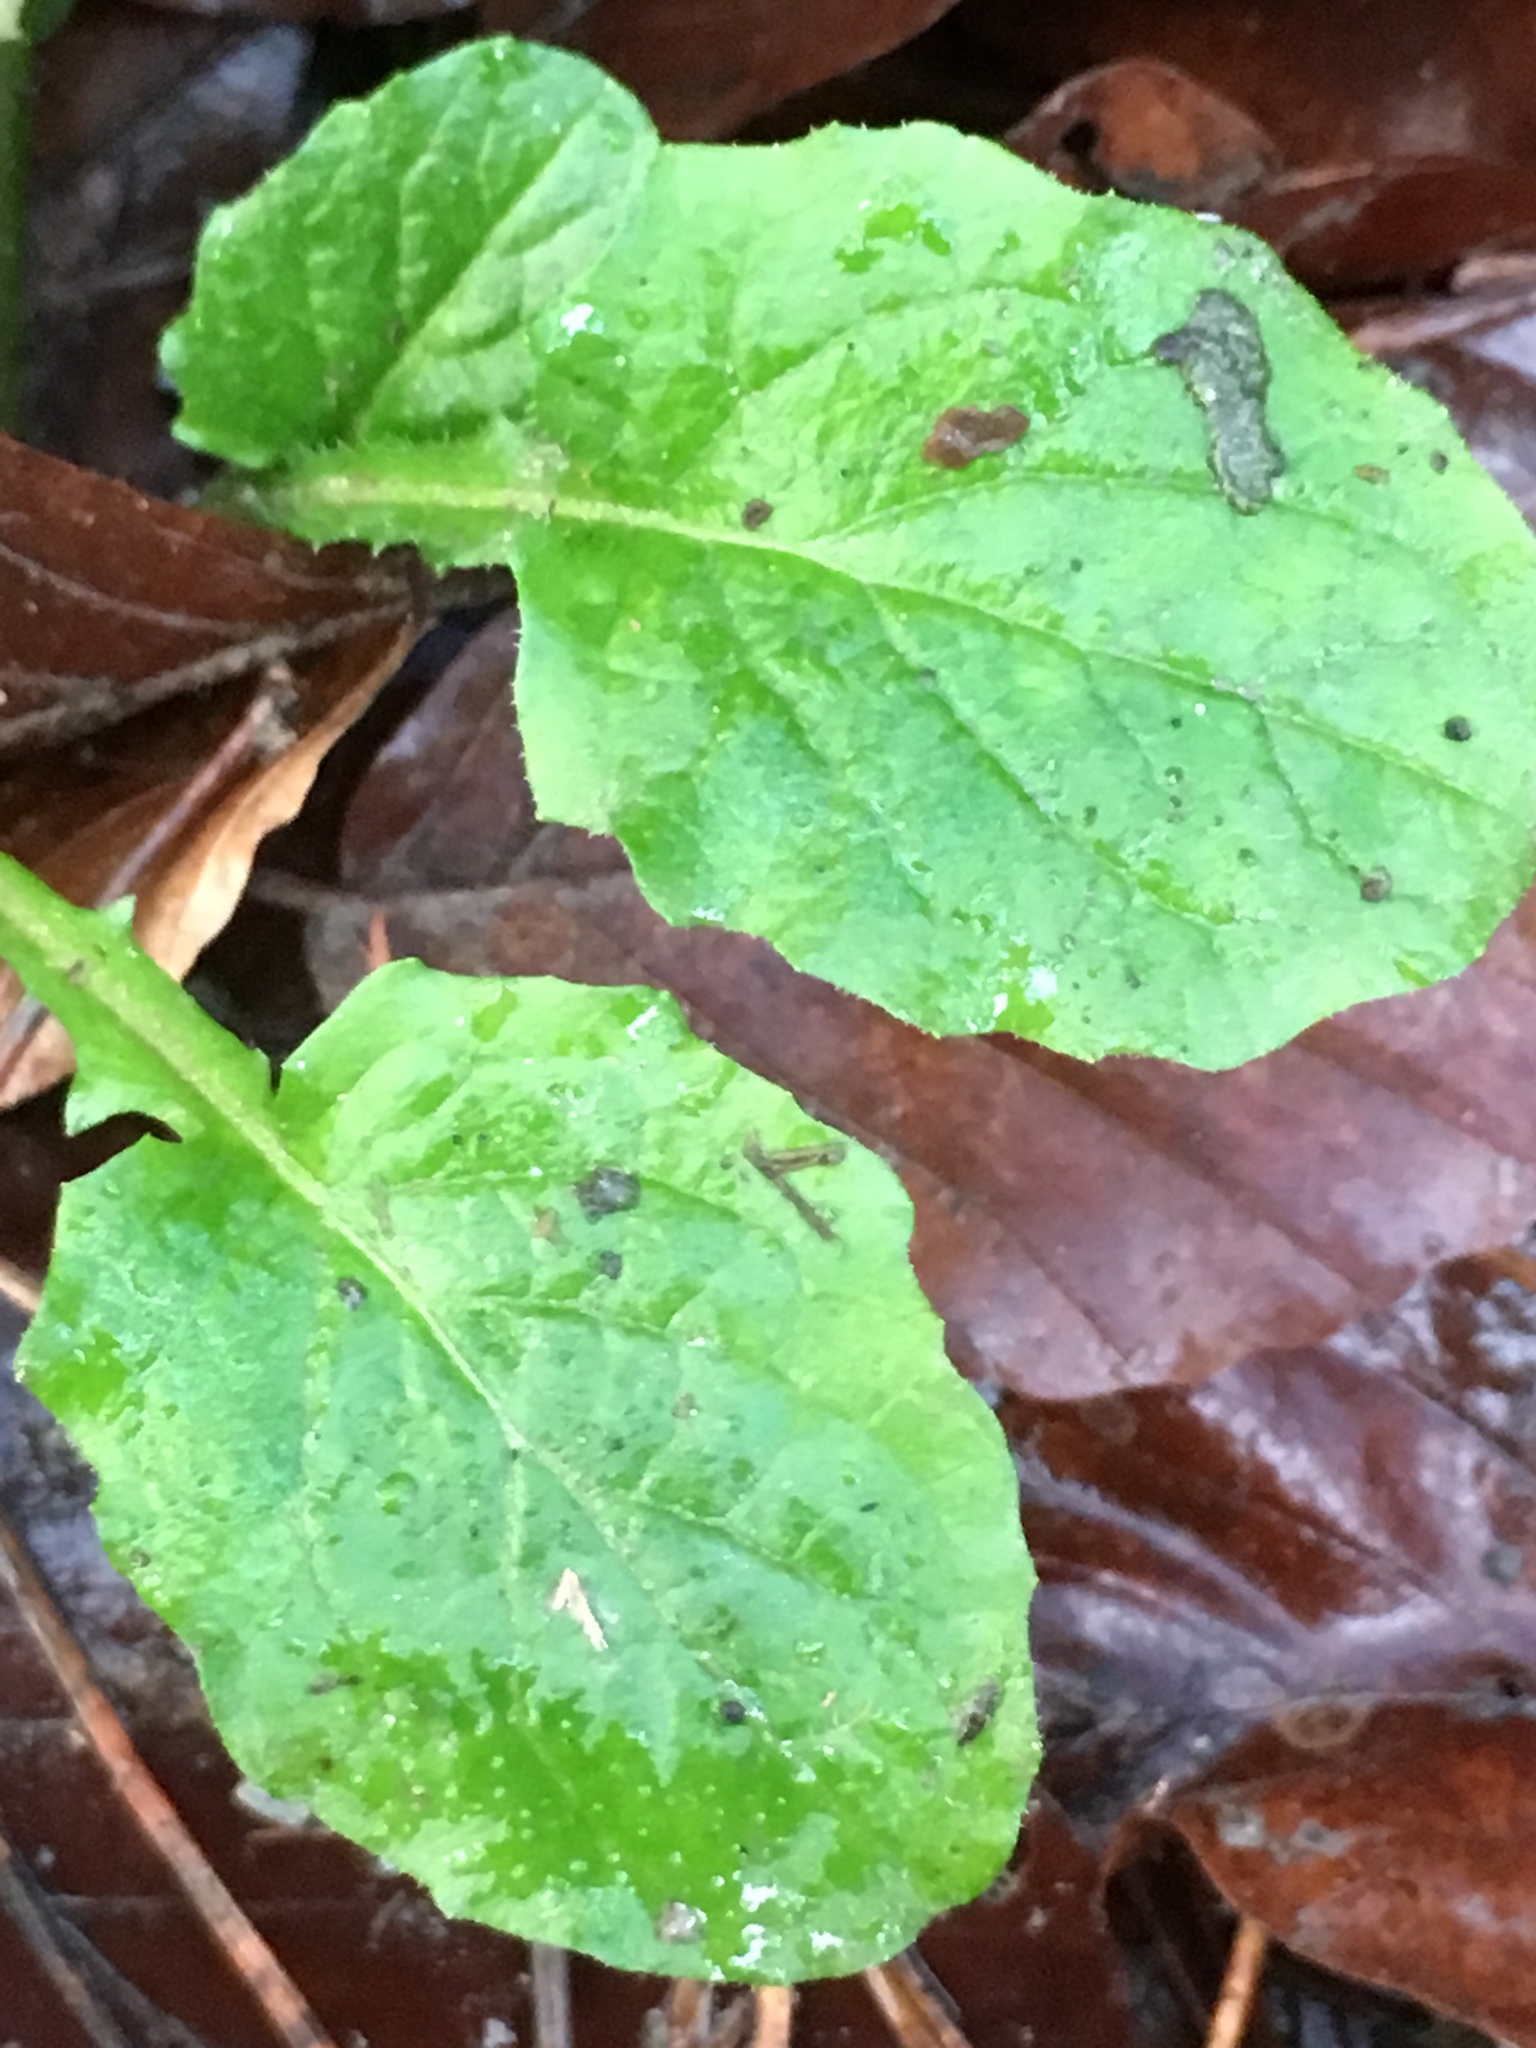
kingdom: Plantae
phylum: Tracheophyta
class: Magnoliopsida
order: Asterales
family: Asteraceae
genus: Lapsana
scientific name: Lapsana communis
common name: Nipplewort
